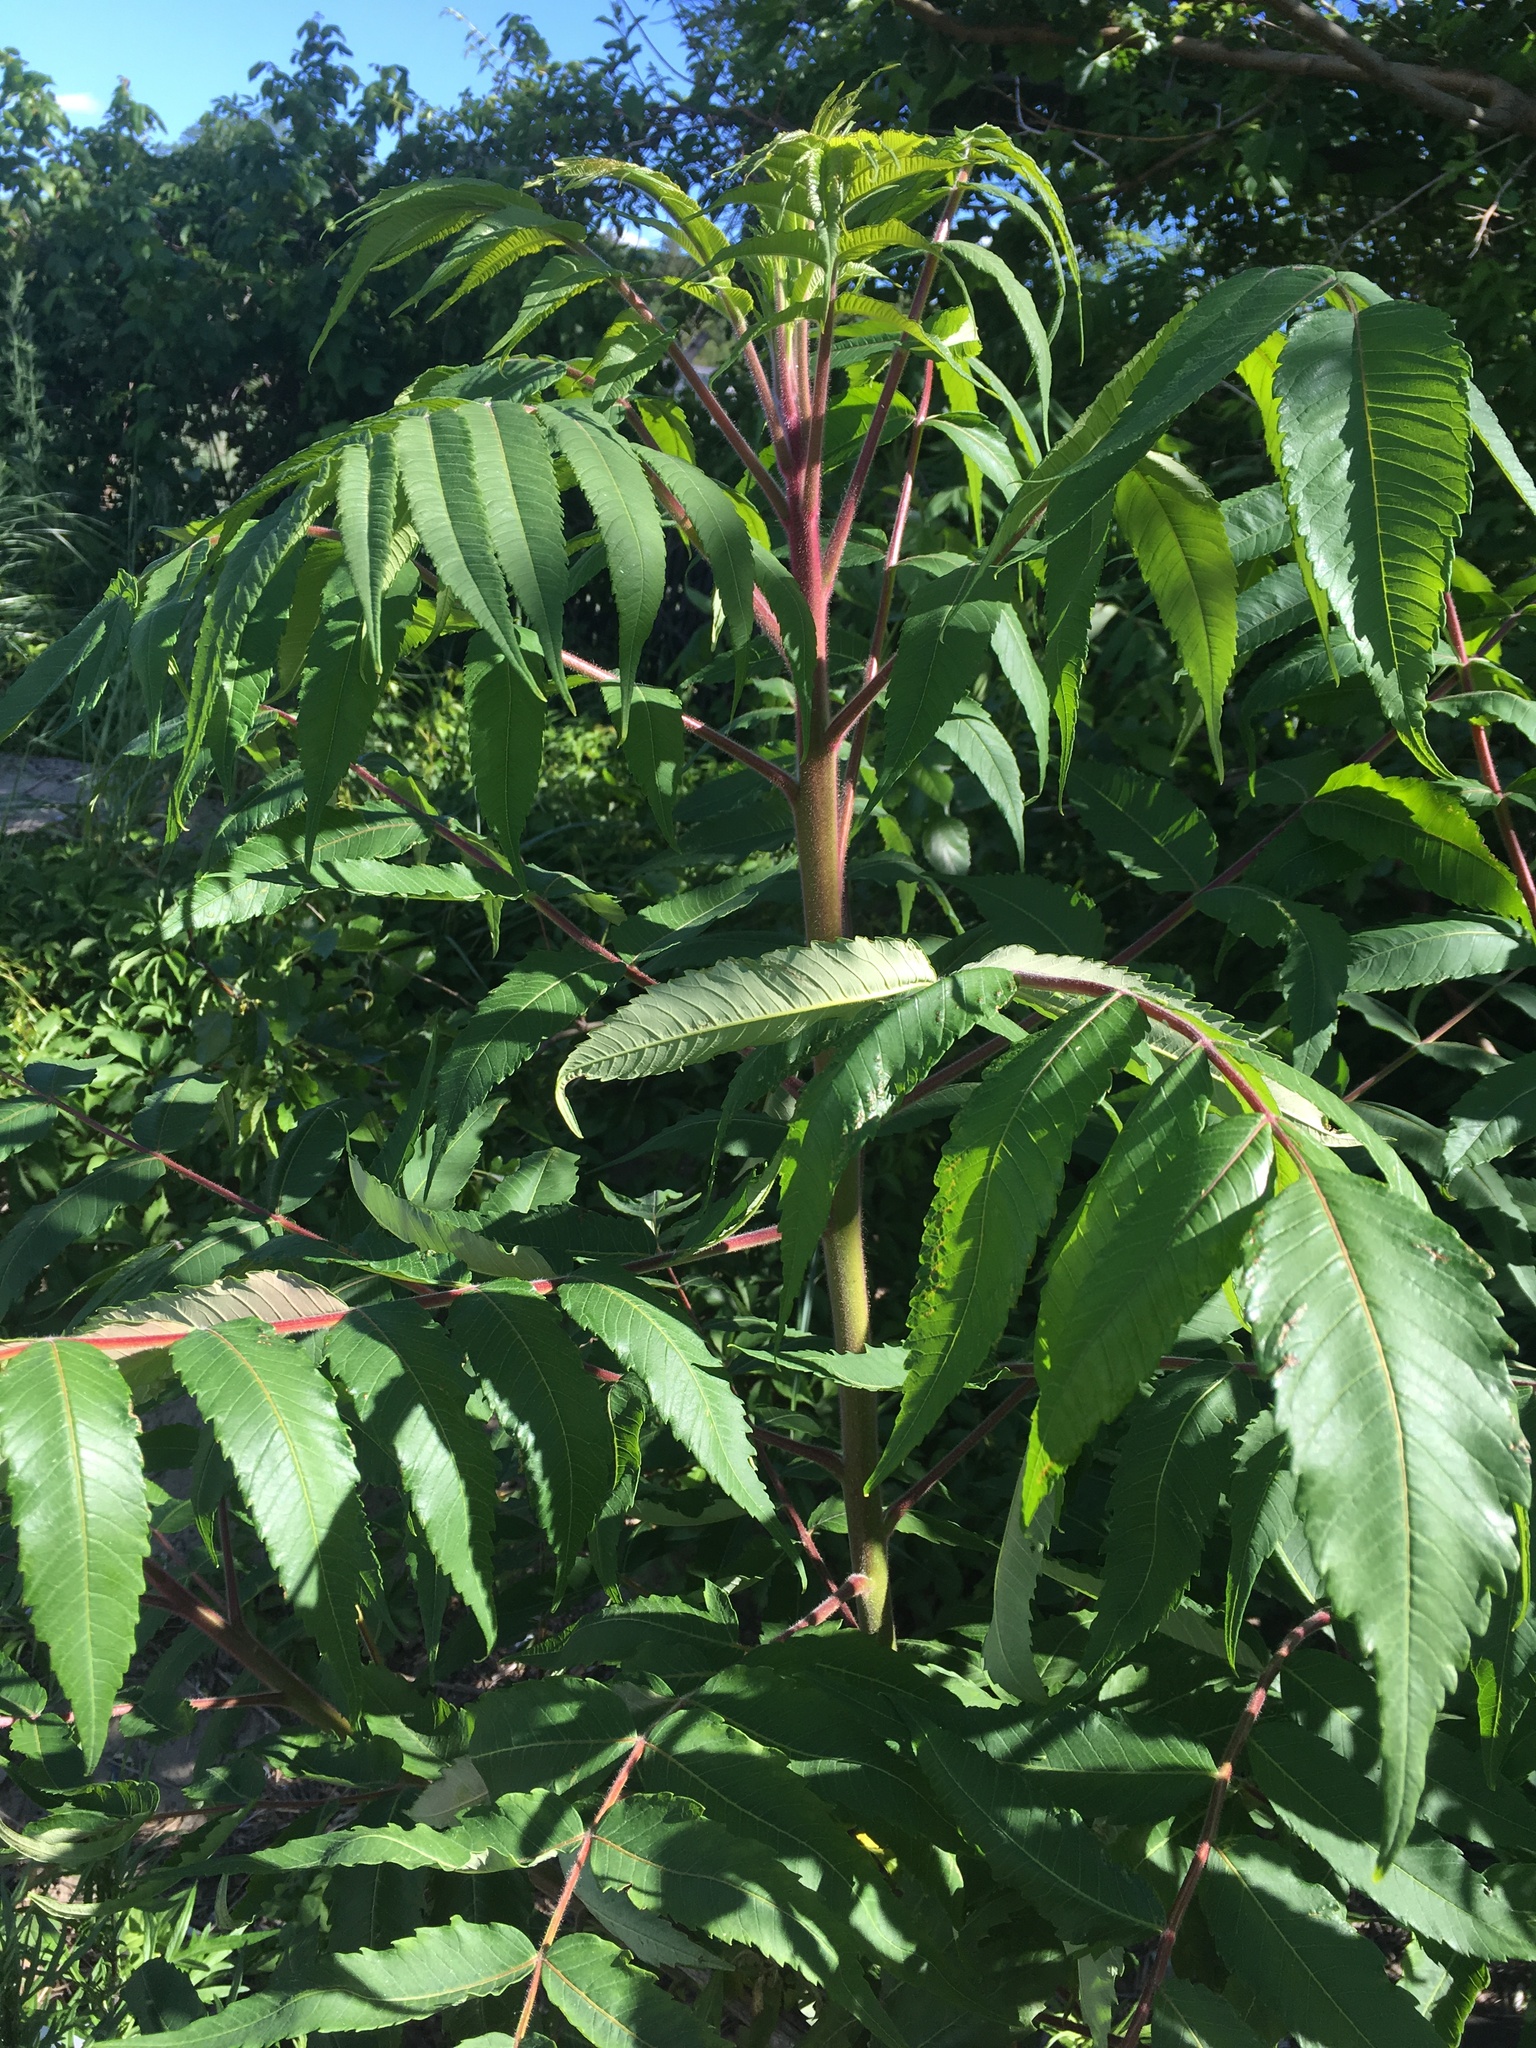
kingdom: Plantae
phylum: Tracheophyta
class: Magnoliopsida
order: Sapindales
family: Anacardiaceae
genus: Rhus
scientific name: Rhus typhina
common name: Staghorn sumac
